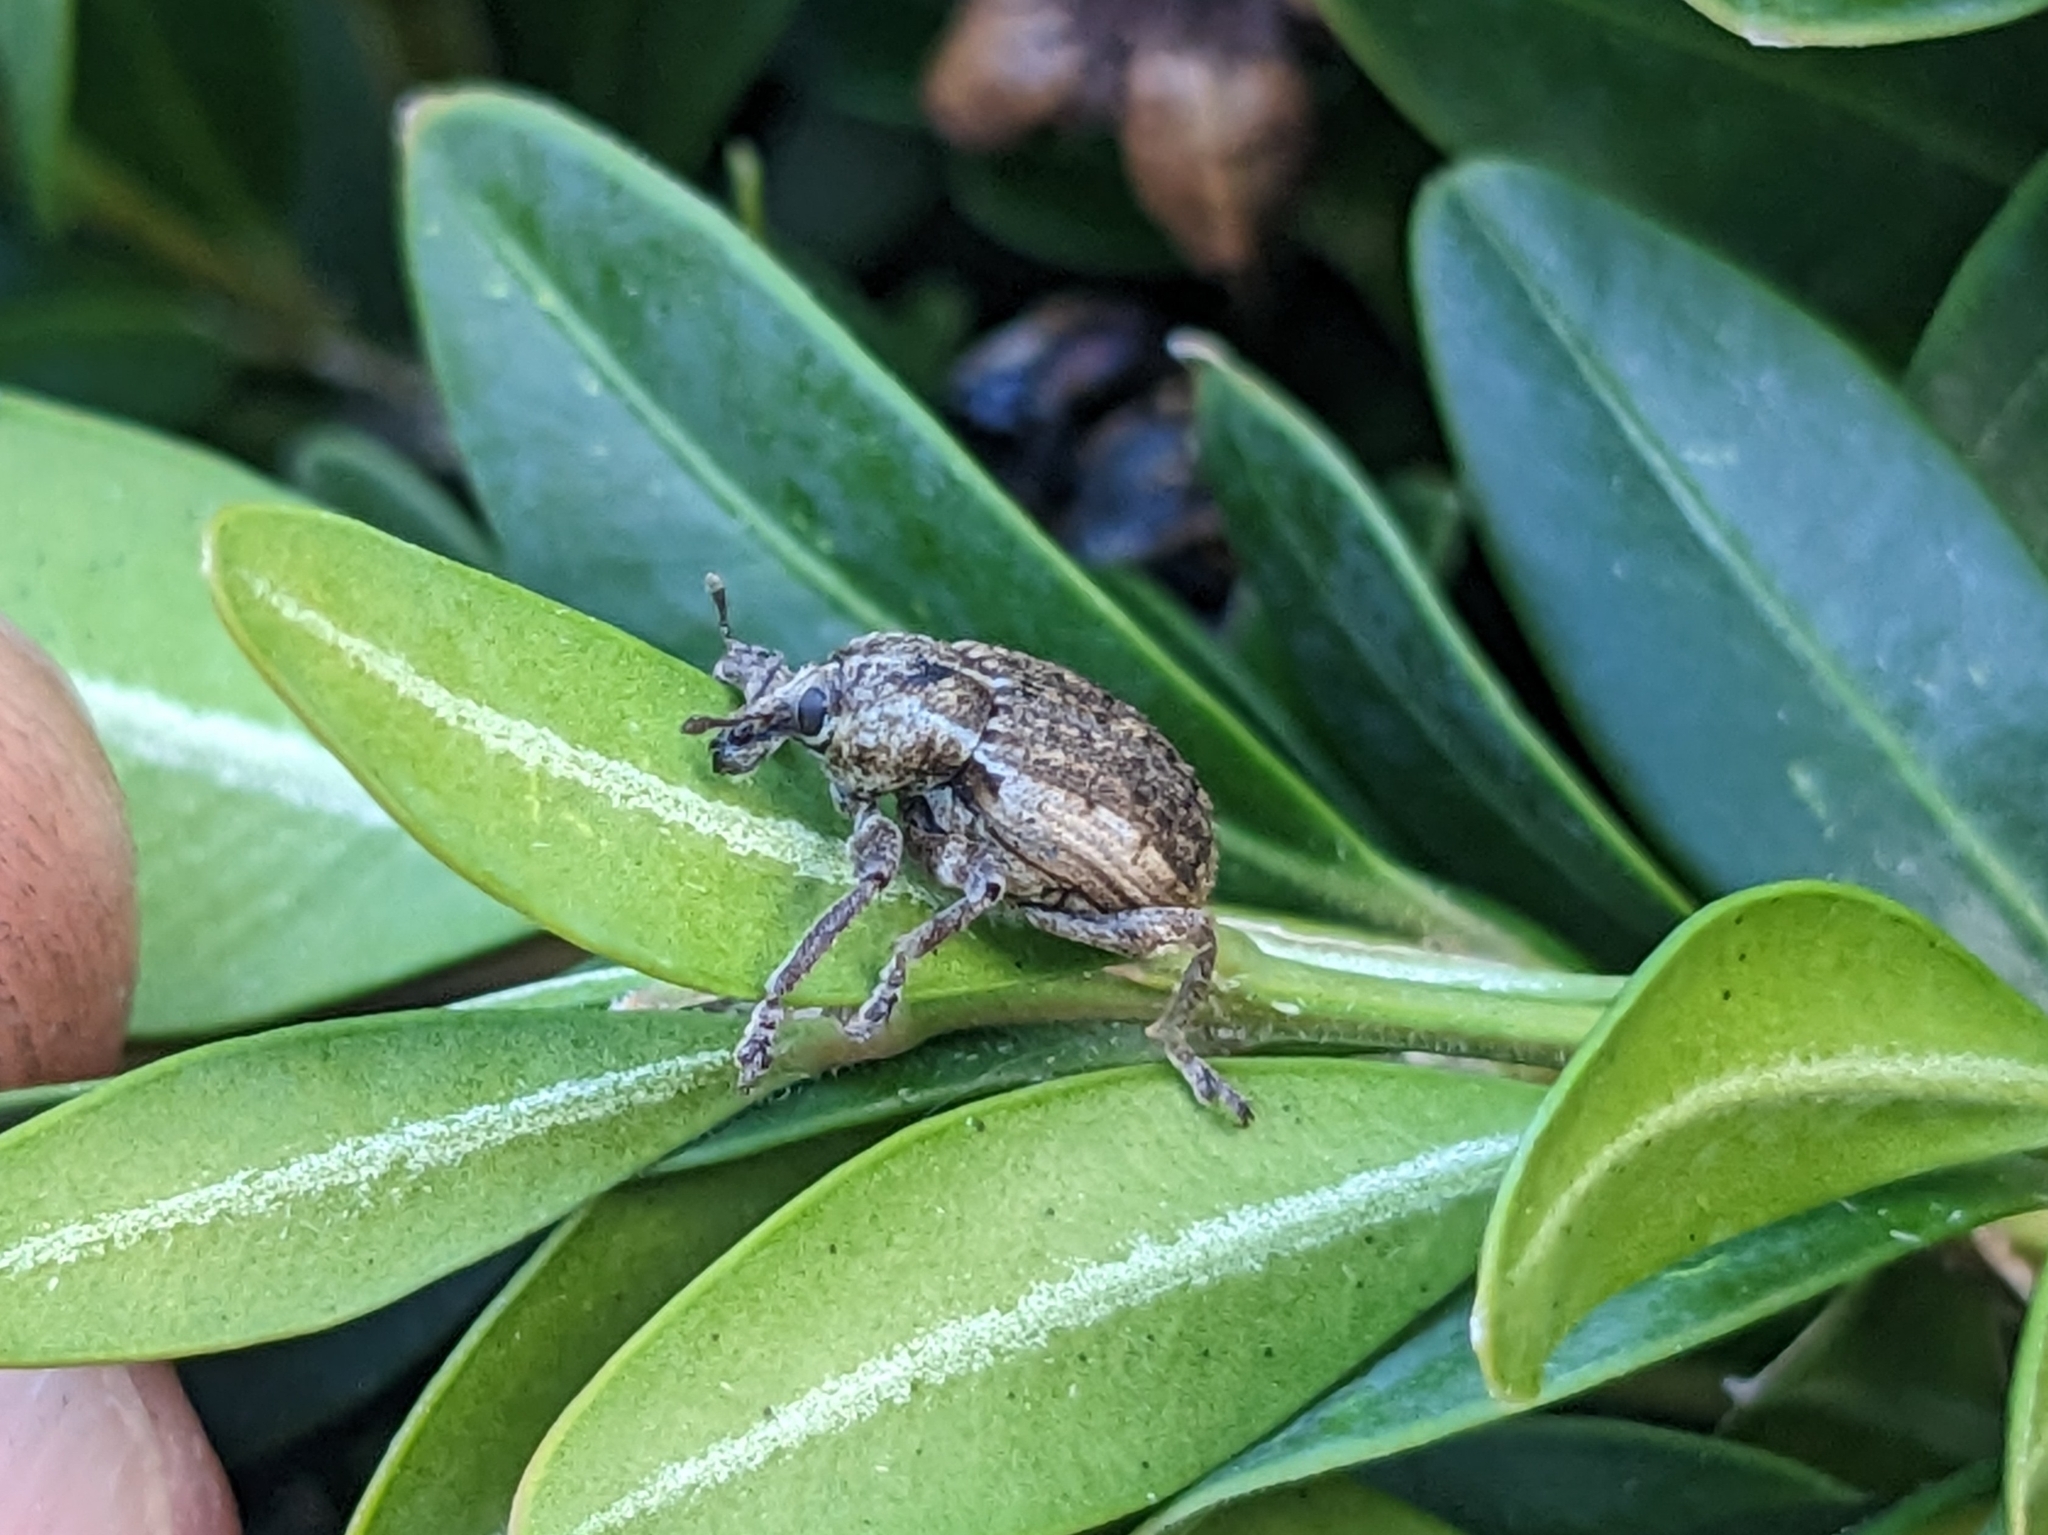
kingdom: Animalia
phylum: Arthropoda
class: Insecta
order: Coleoptera
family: Curculionidae
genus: Brachypera
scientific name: Brachypera zoilus
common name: Clover leaf weevil
